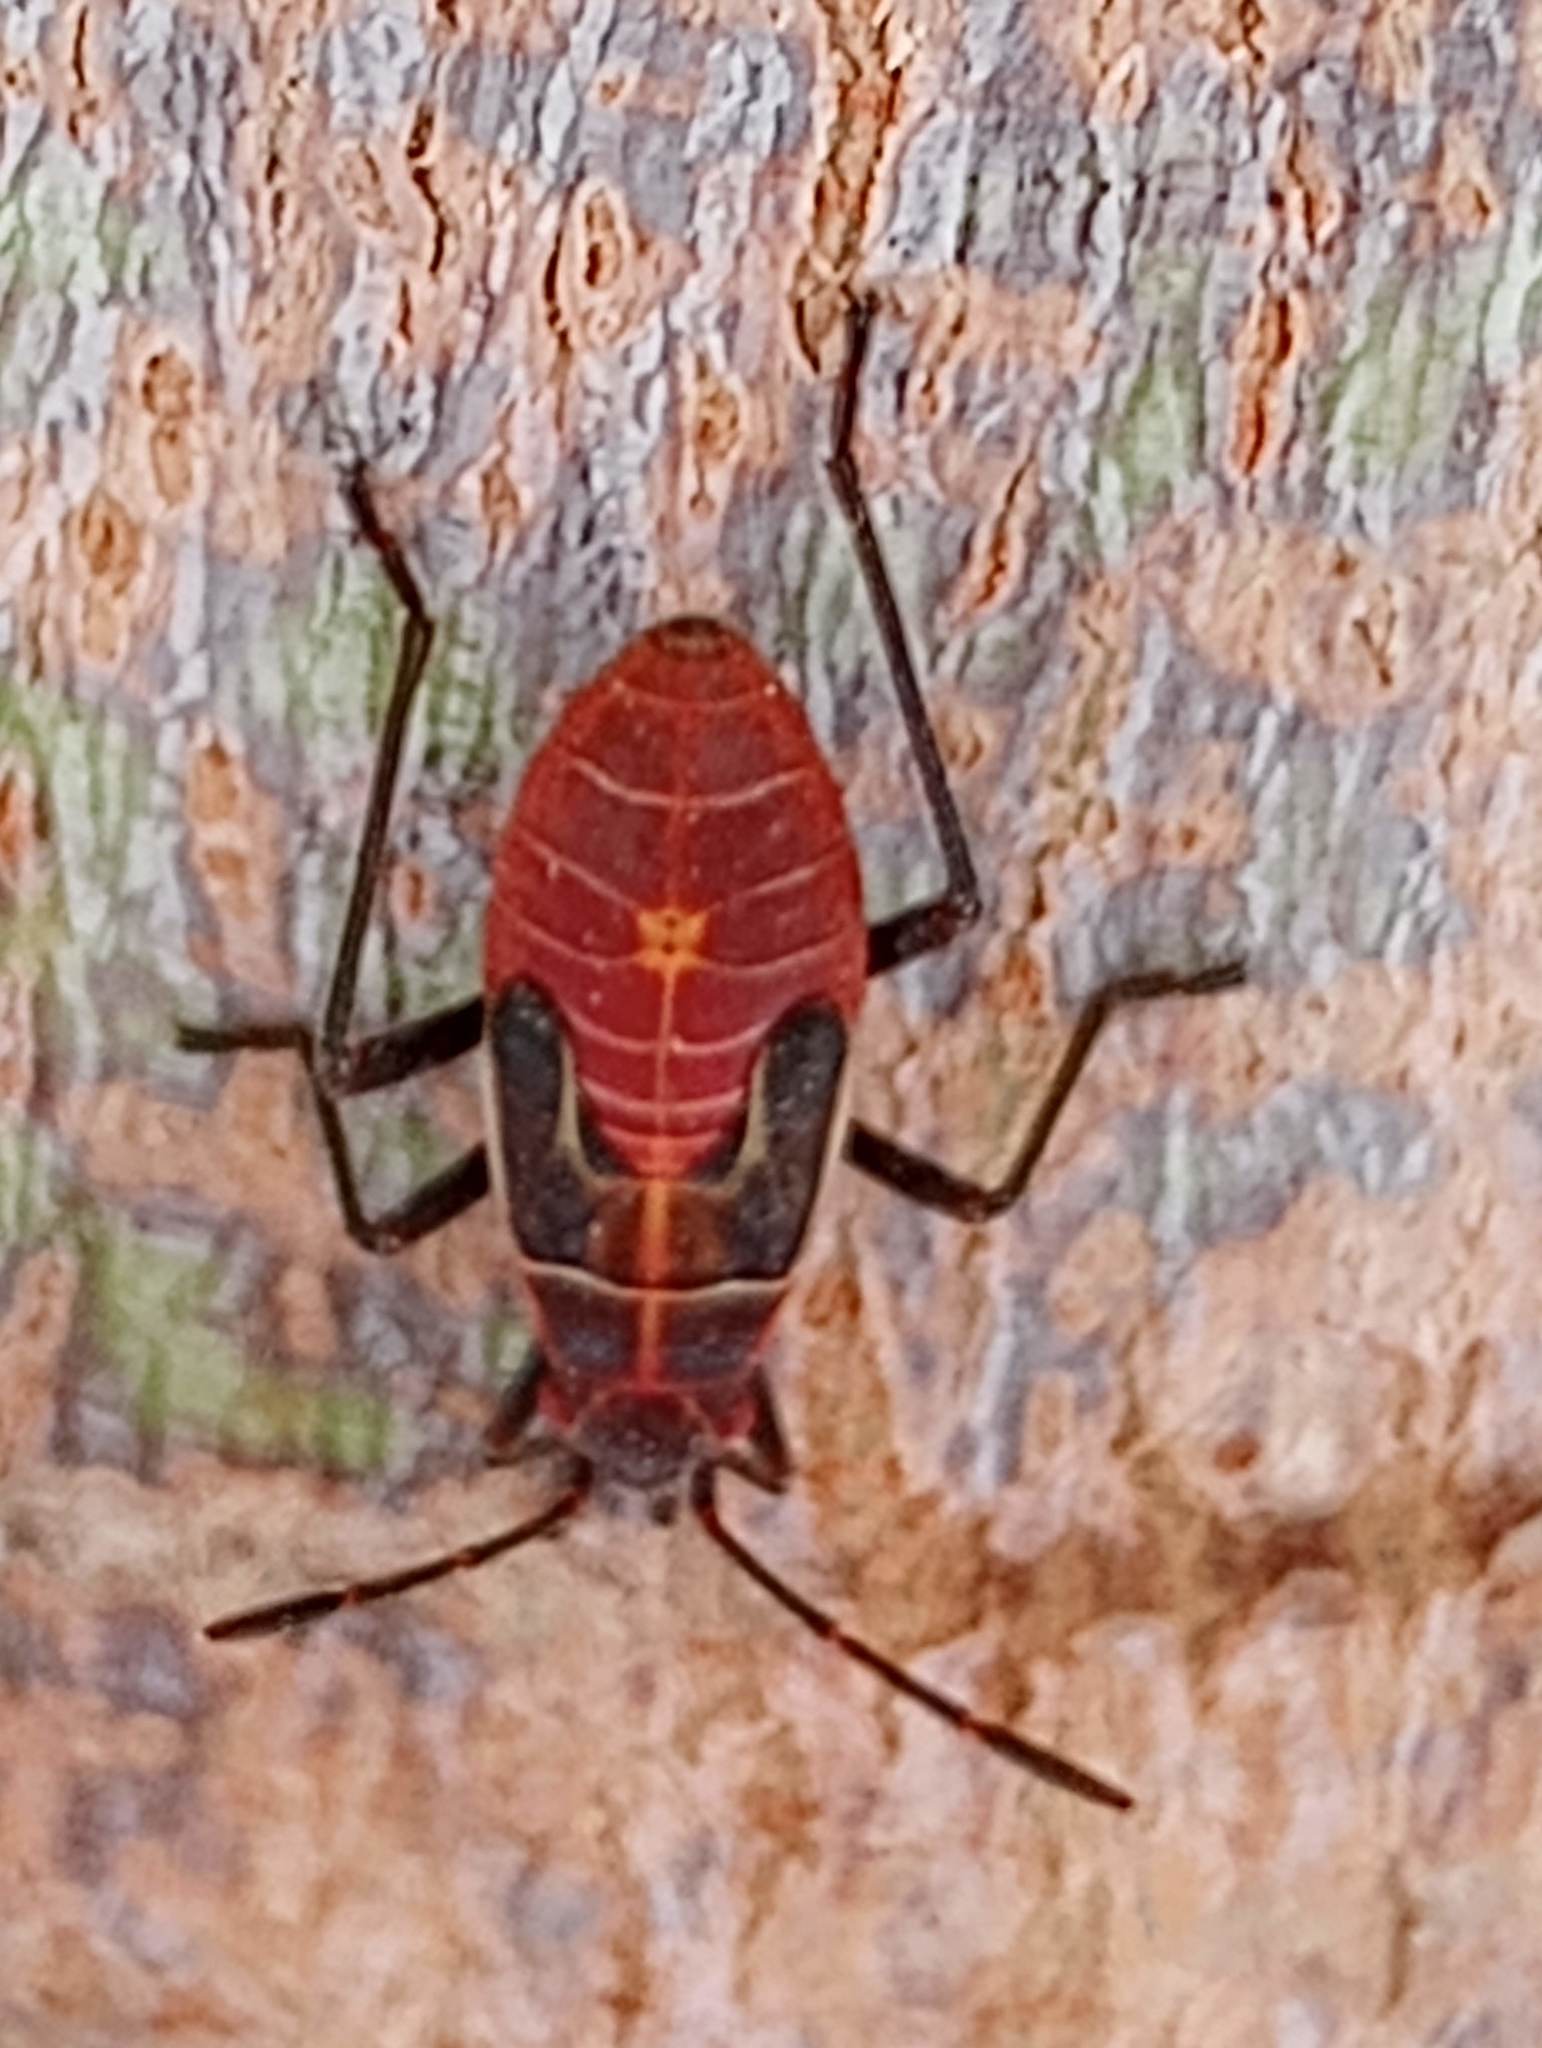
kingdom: Animalia
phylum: Arthropoda
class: Insecta
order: Hemiptera
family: Rhopalidae
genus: Boisea
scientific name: Boisea rubrolineata
